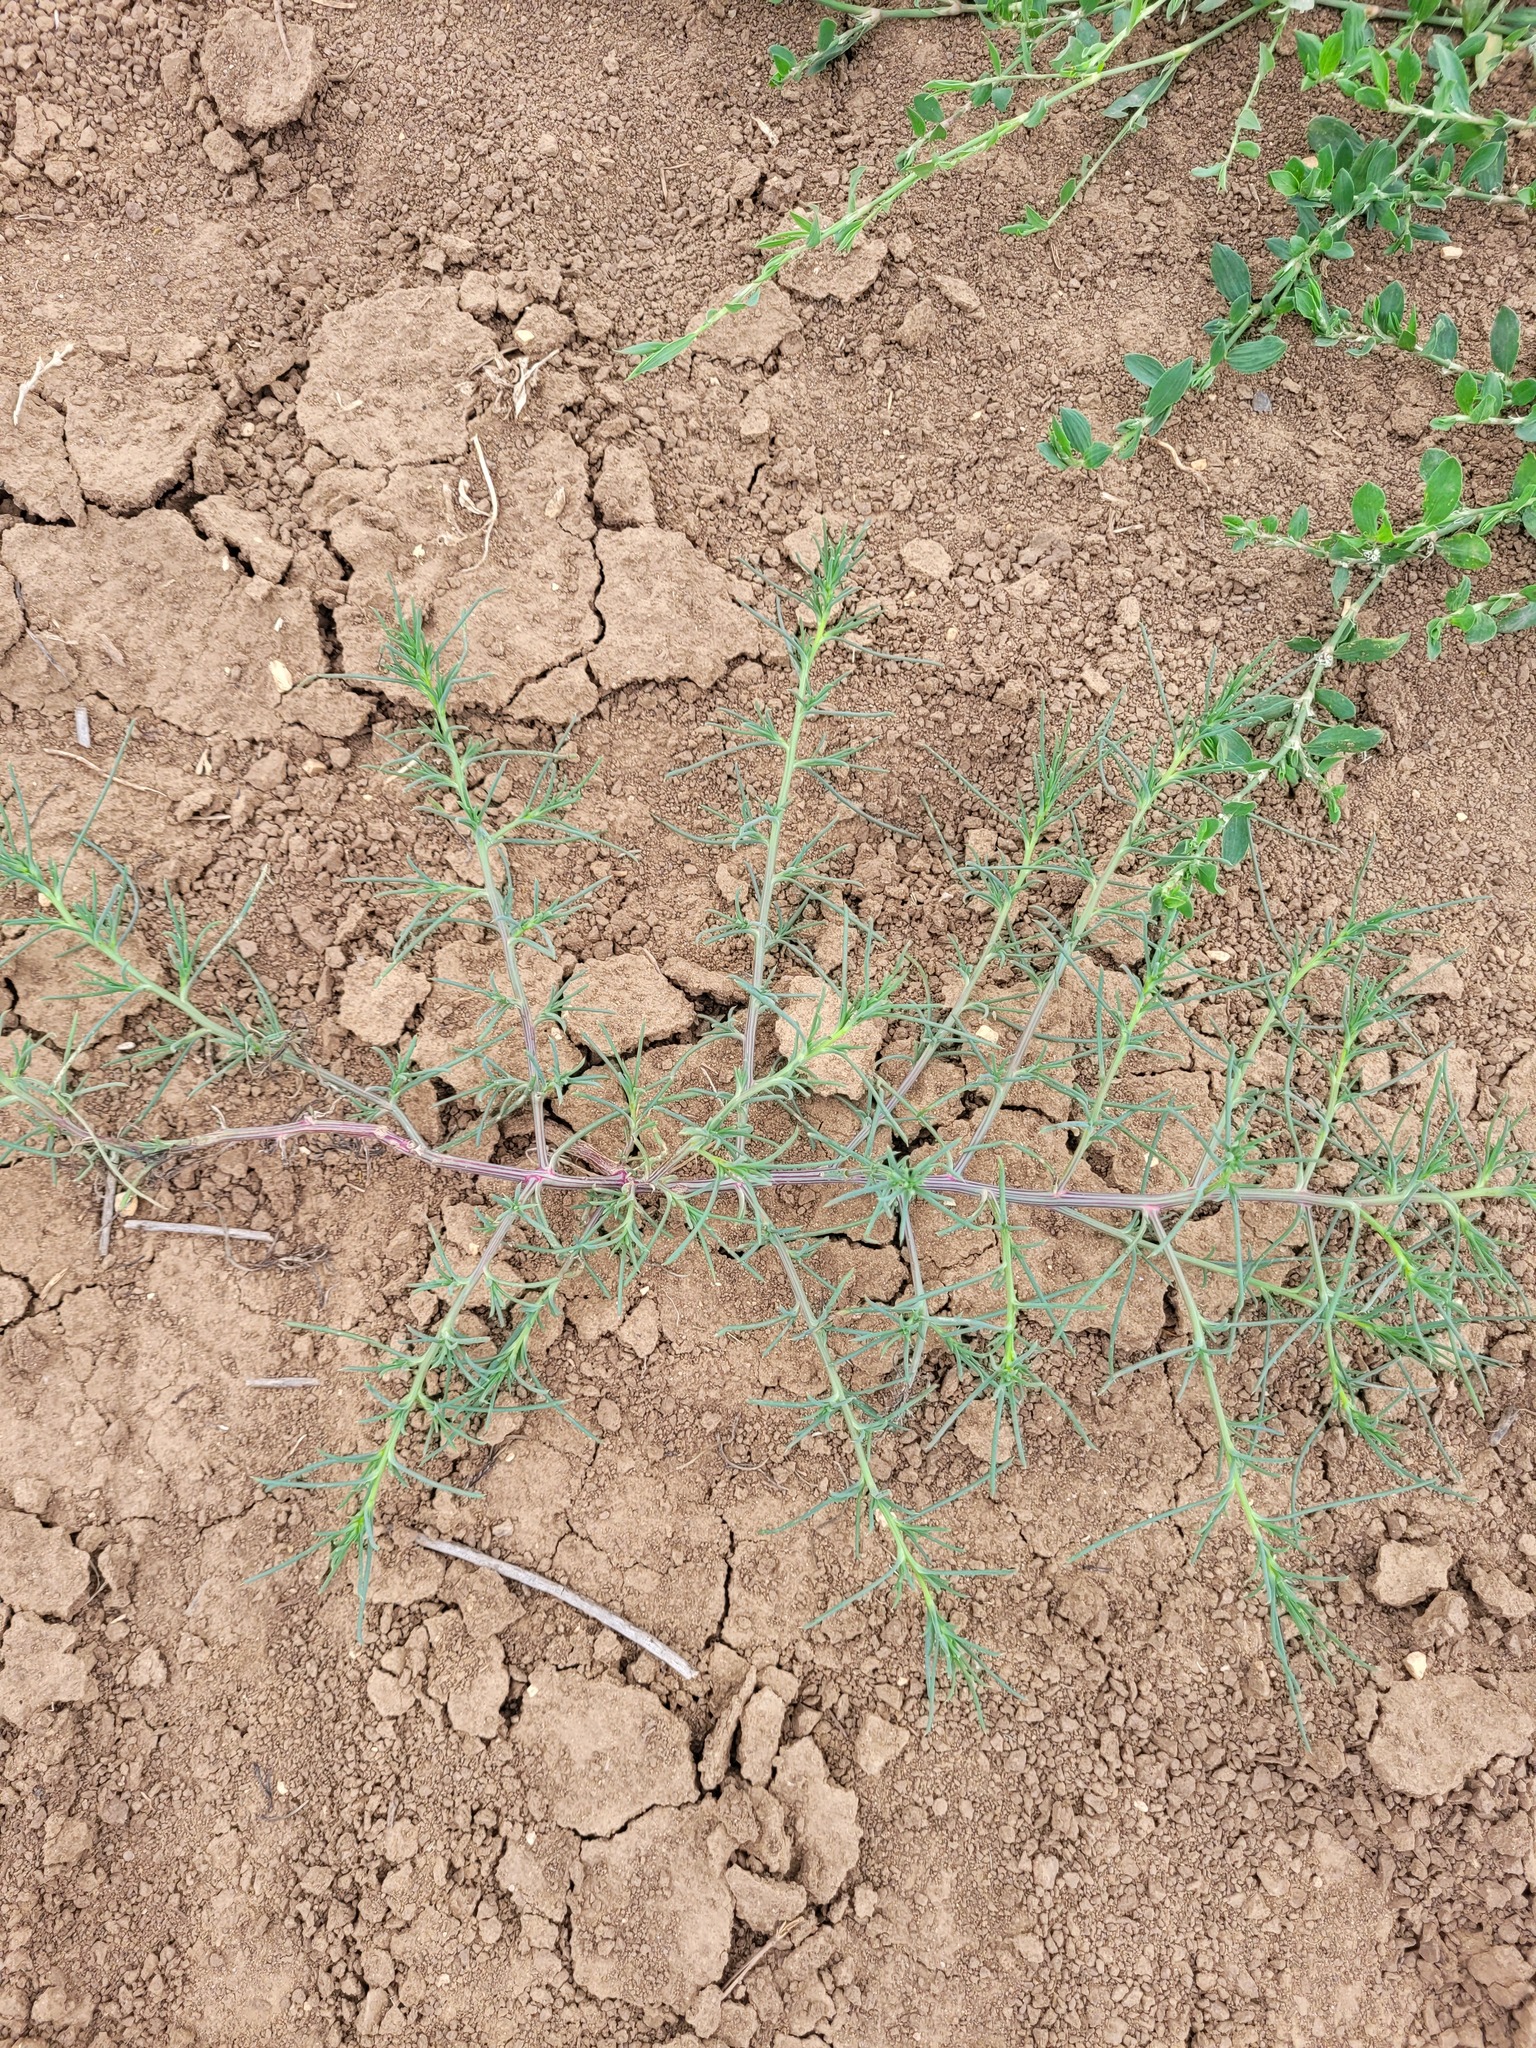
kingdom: Plantae
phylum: Tracheophyta
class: Magnoliopsida
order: Caryophyllales
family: Amaranthaceae
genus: Salsola
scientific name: Salsola tragus
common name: Prickly russian thistle
